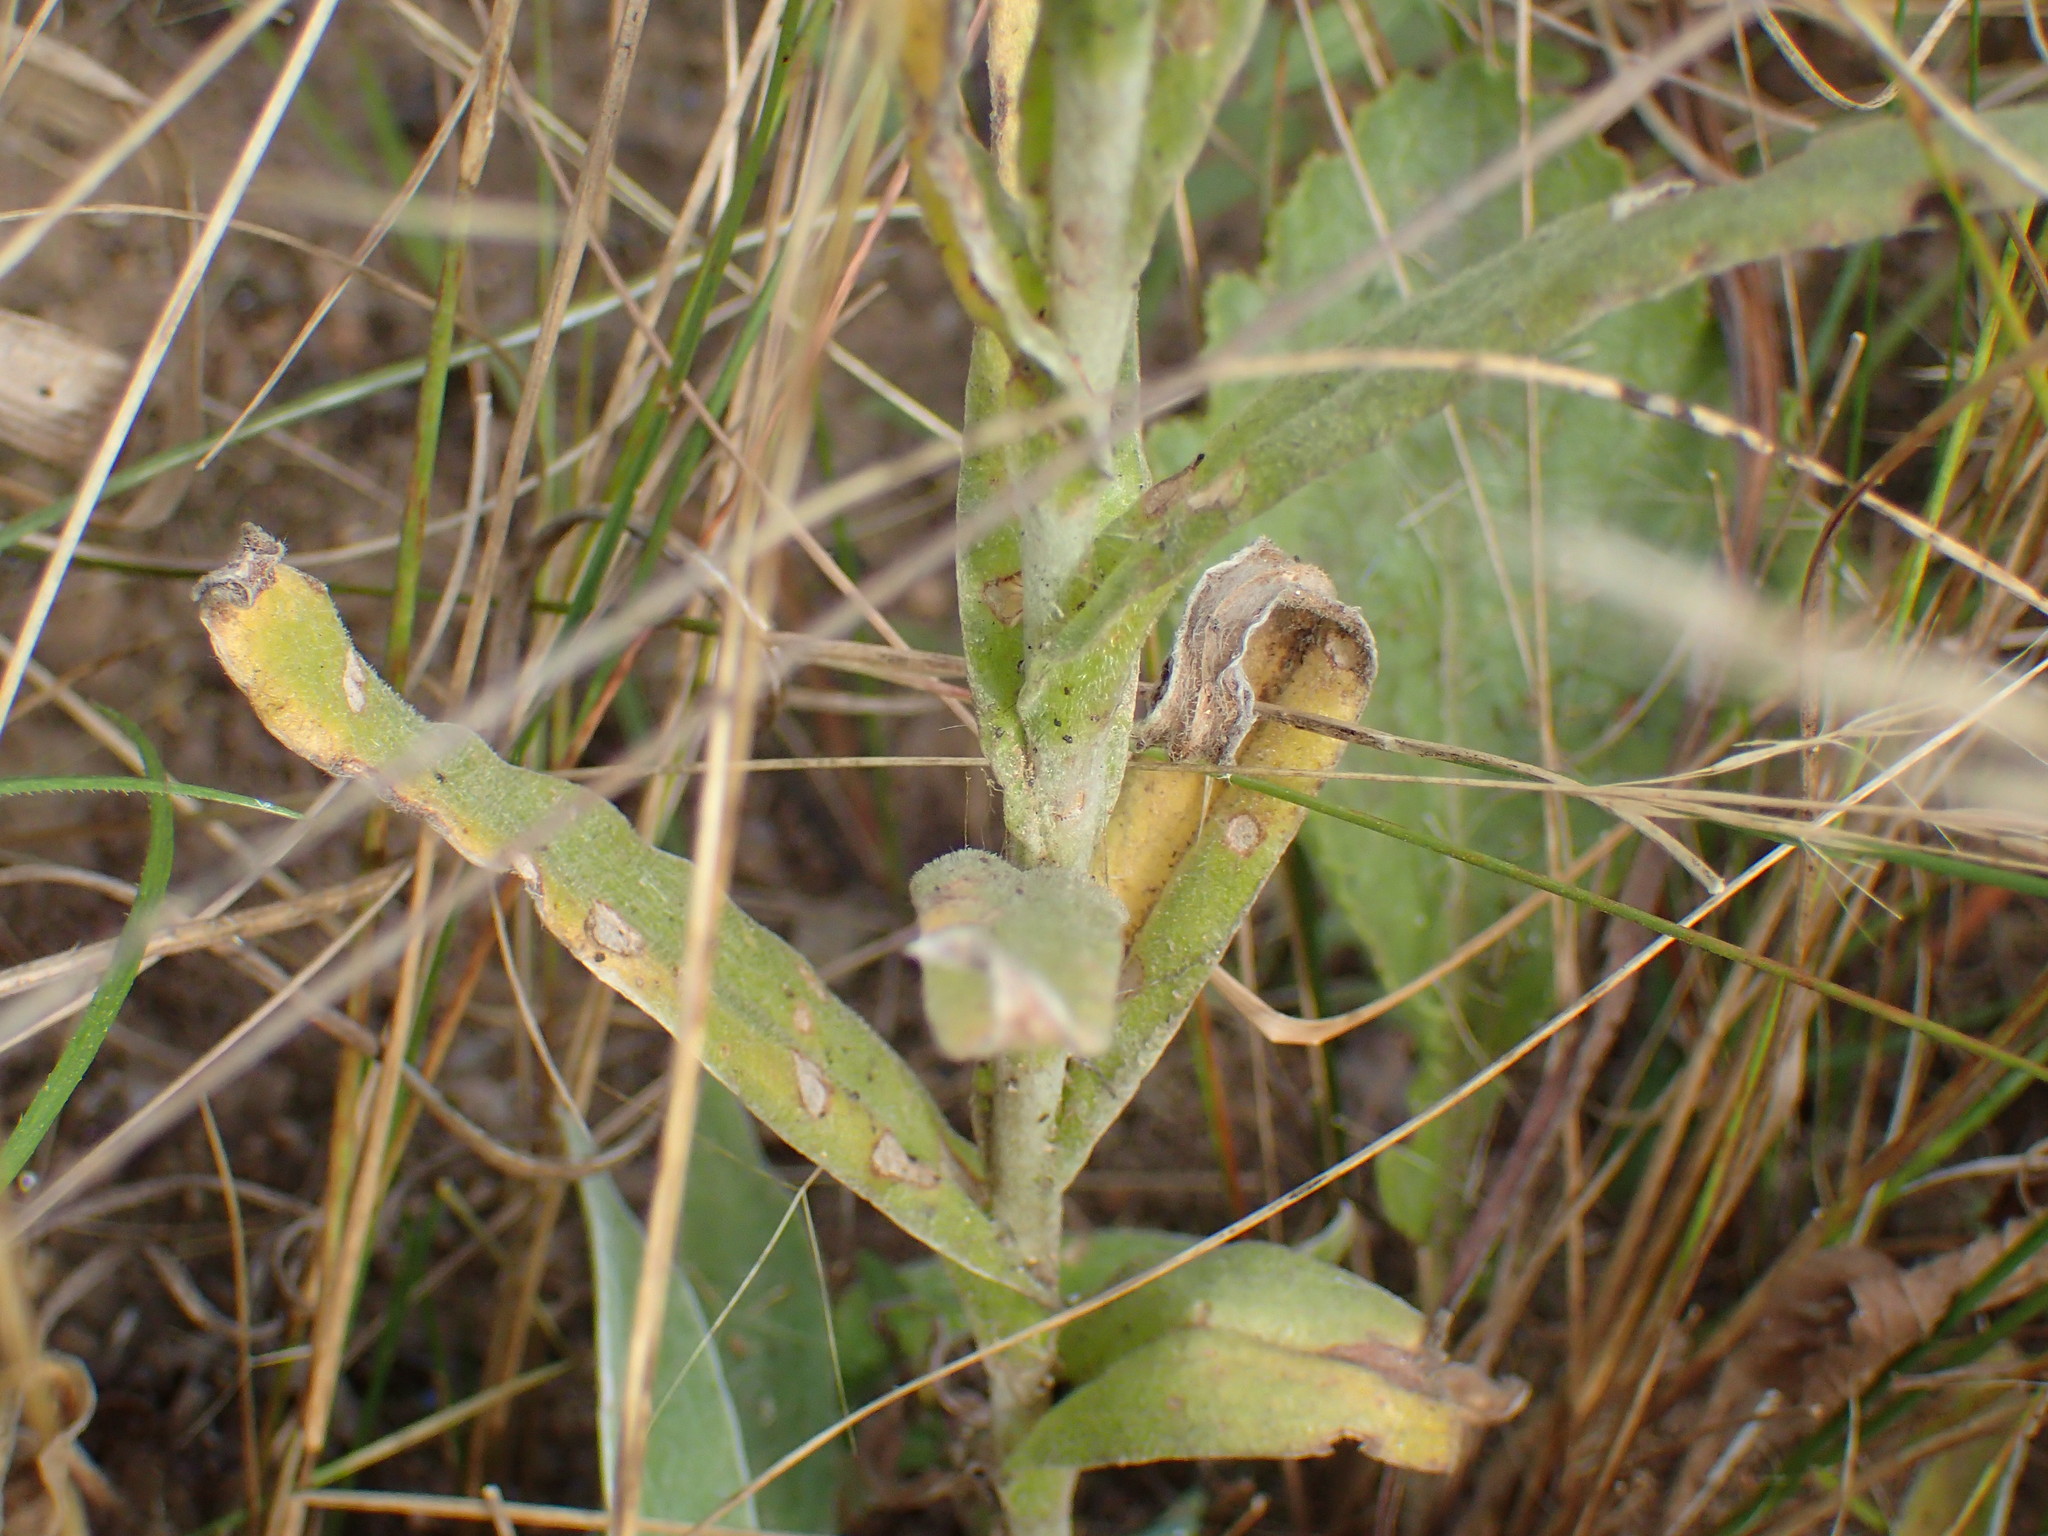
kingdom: Plantae
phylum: Tracheophyta
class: Magnoliopsida
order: Asterales
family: Asteraceae
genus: Helichrysum
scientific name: Helichrysum auriceps
